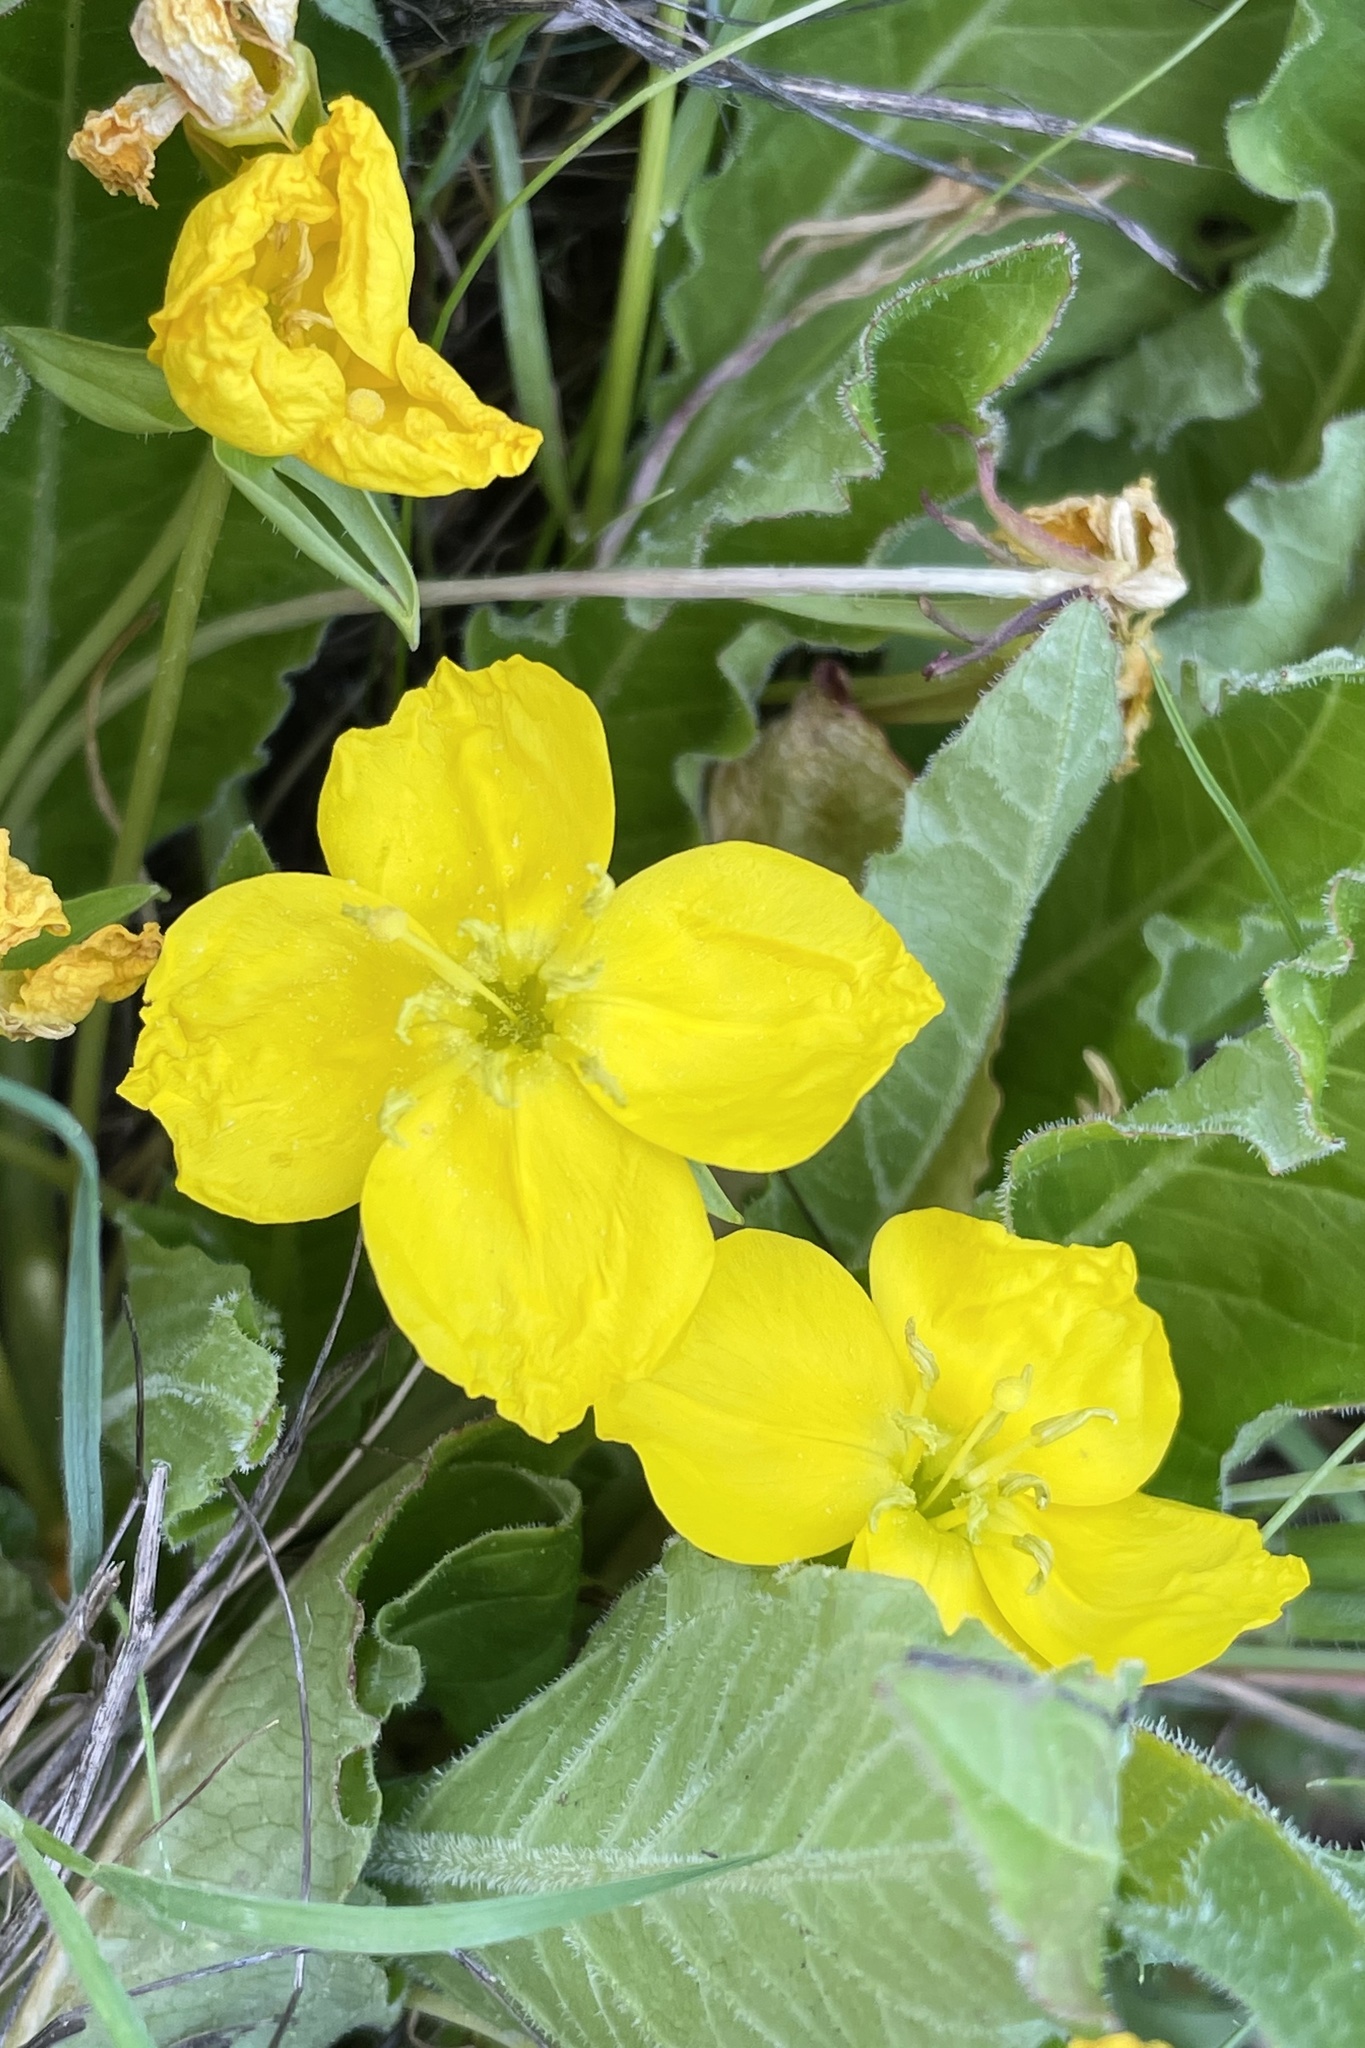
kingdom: Plantae
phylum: Tracheophyta
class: Magnoliopsida
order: Myrtales
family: Onagraceae
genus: Taraxia
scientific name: Taraxia ovata
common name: Goldeneggs
